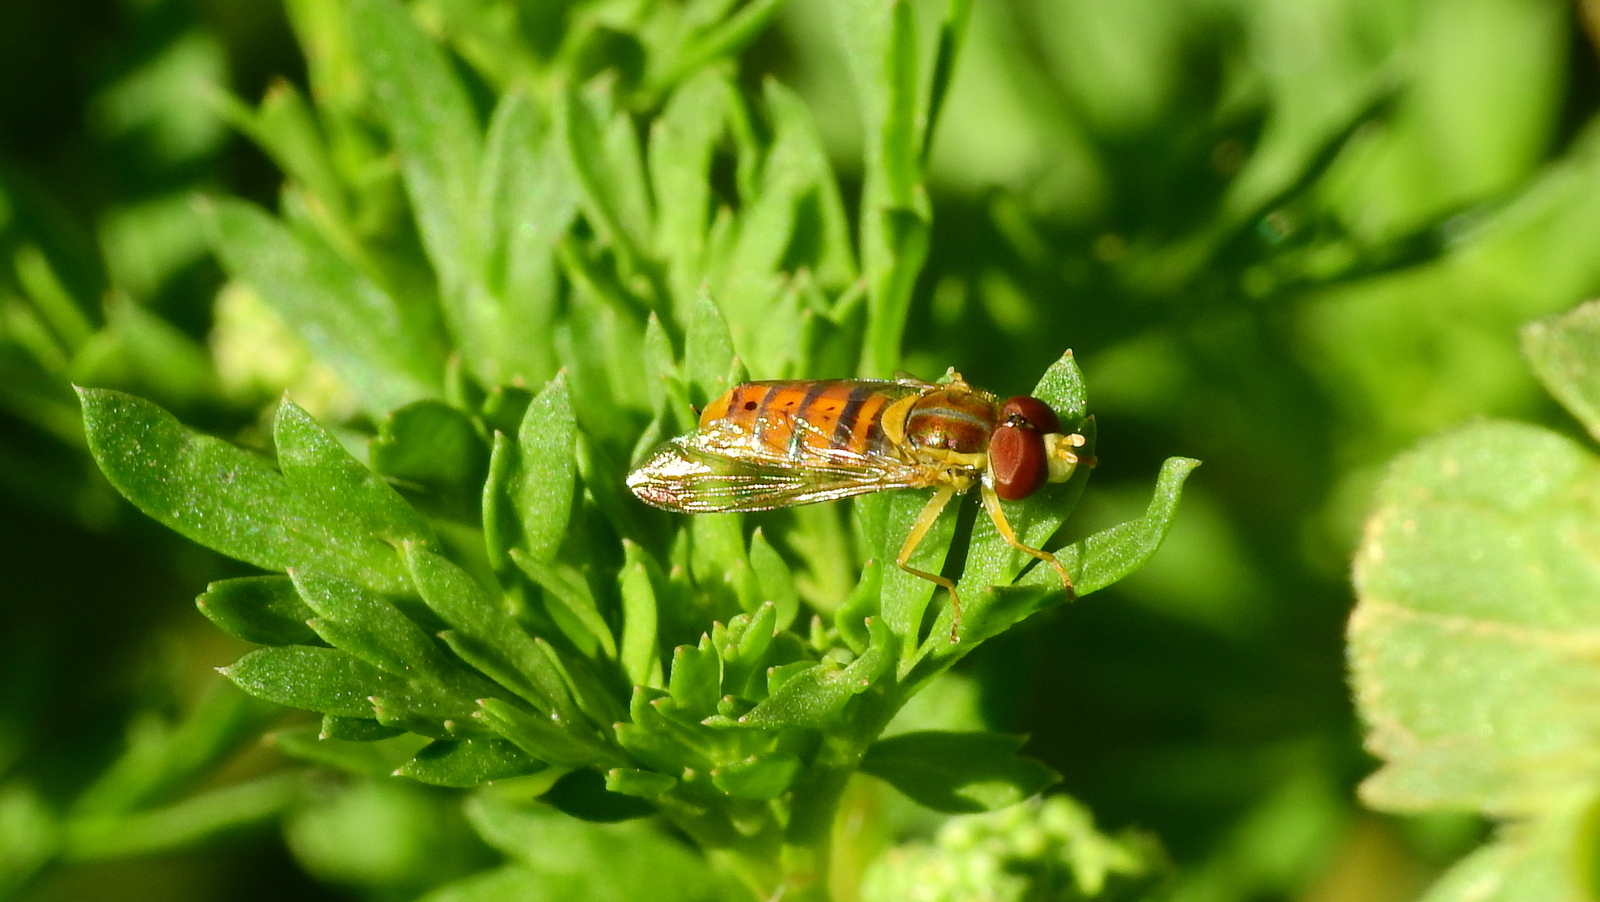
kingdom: Animalia
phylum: Arthropoda
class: Insecta
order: Diptera
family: Syrphidae
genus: Toxomerus
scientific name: Toxomerus
